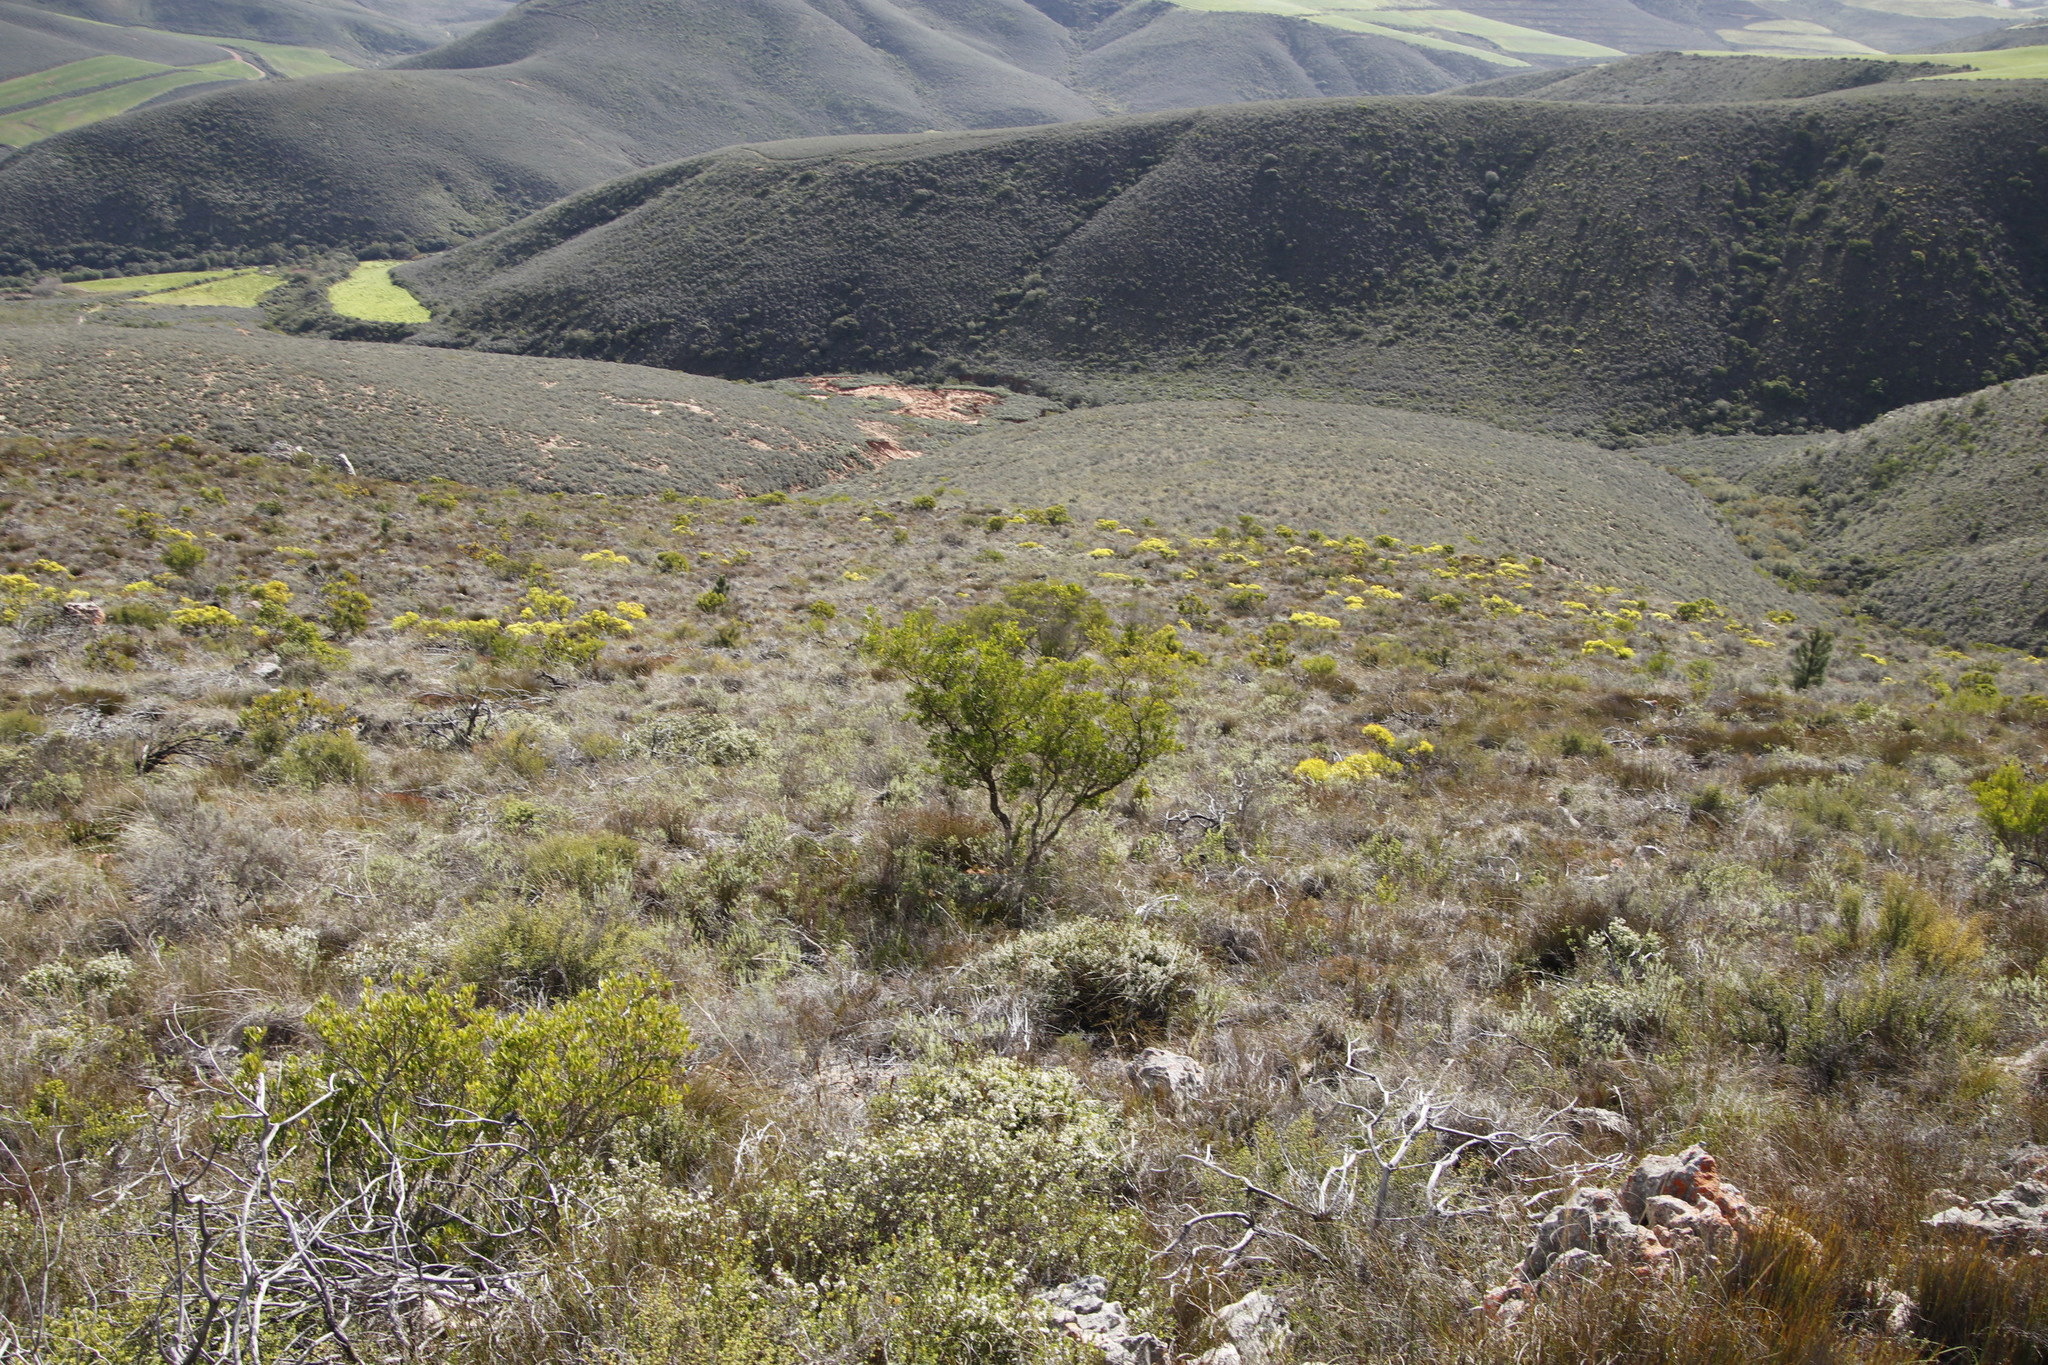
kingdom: Plantae
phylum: Tracheophyta
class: Magnoliopsida
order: Sapindales
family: Sapindaceae
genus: Dodonaea
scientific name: Dodonaea viscosa
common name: Hopbush
